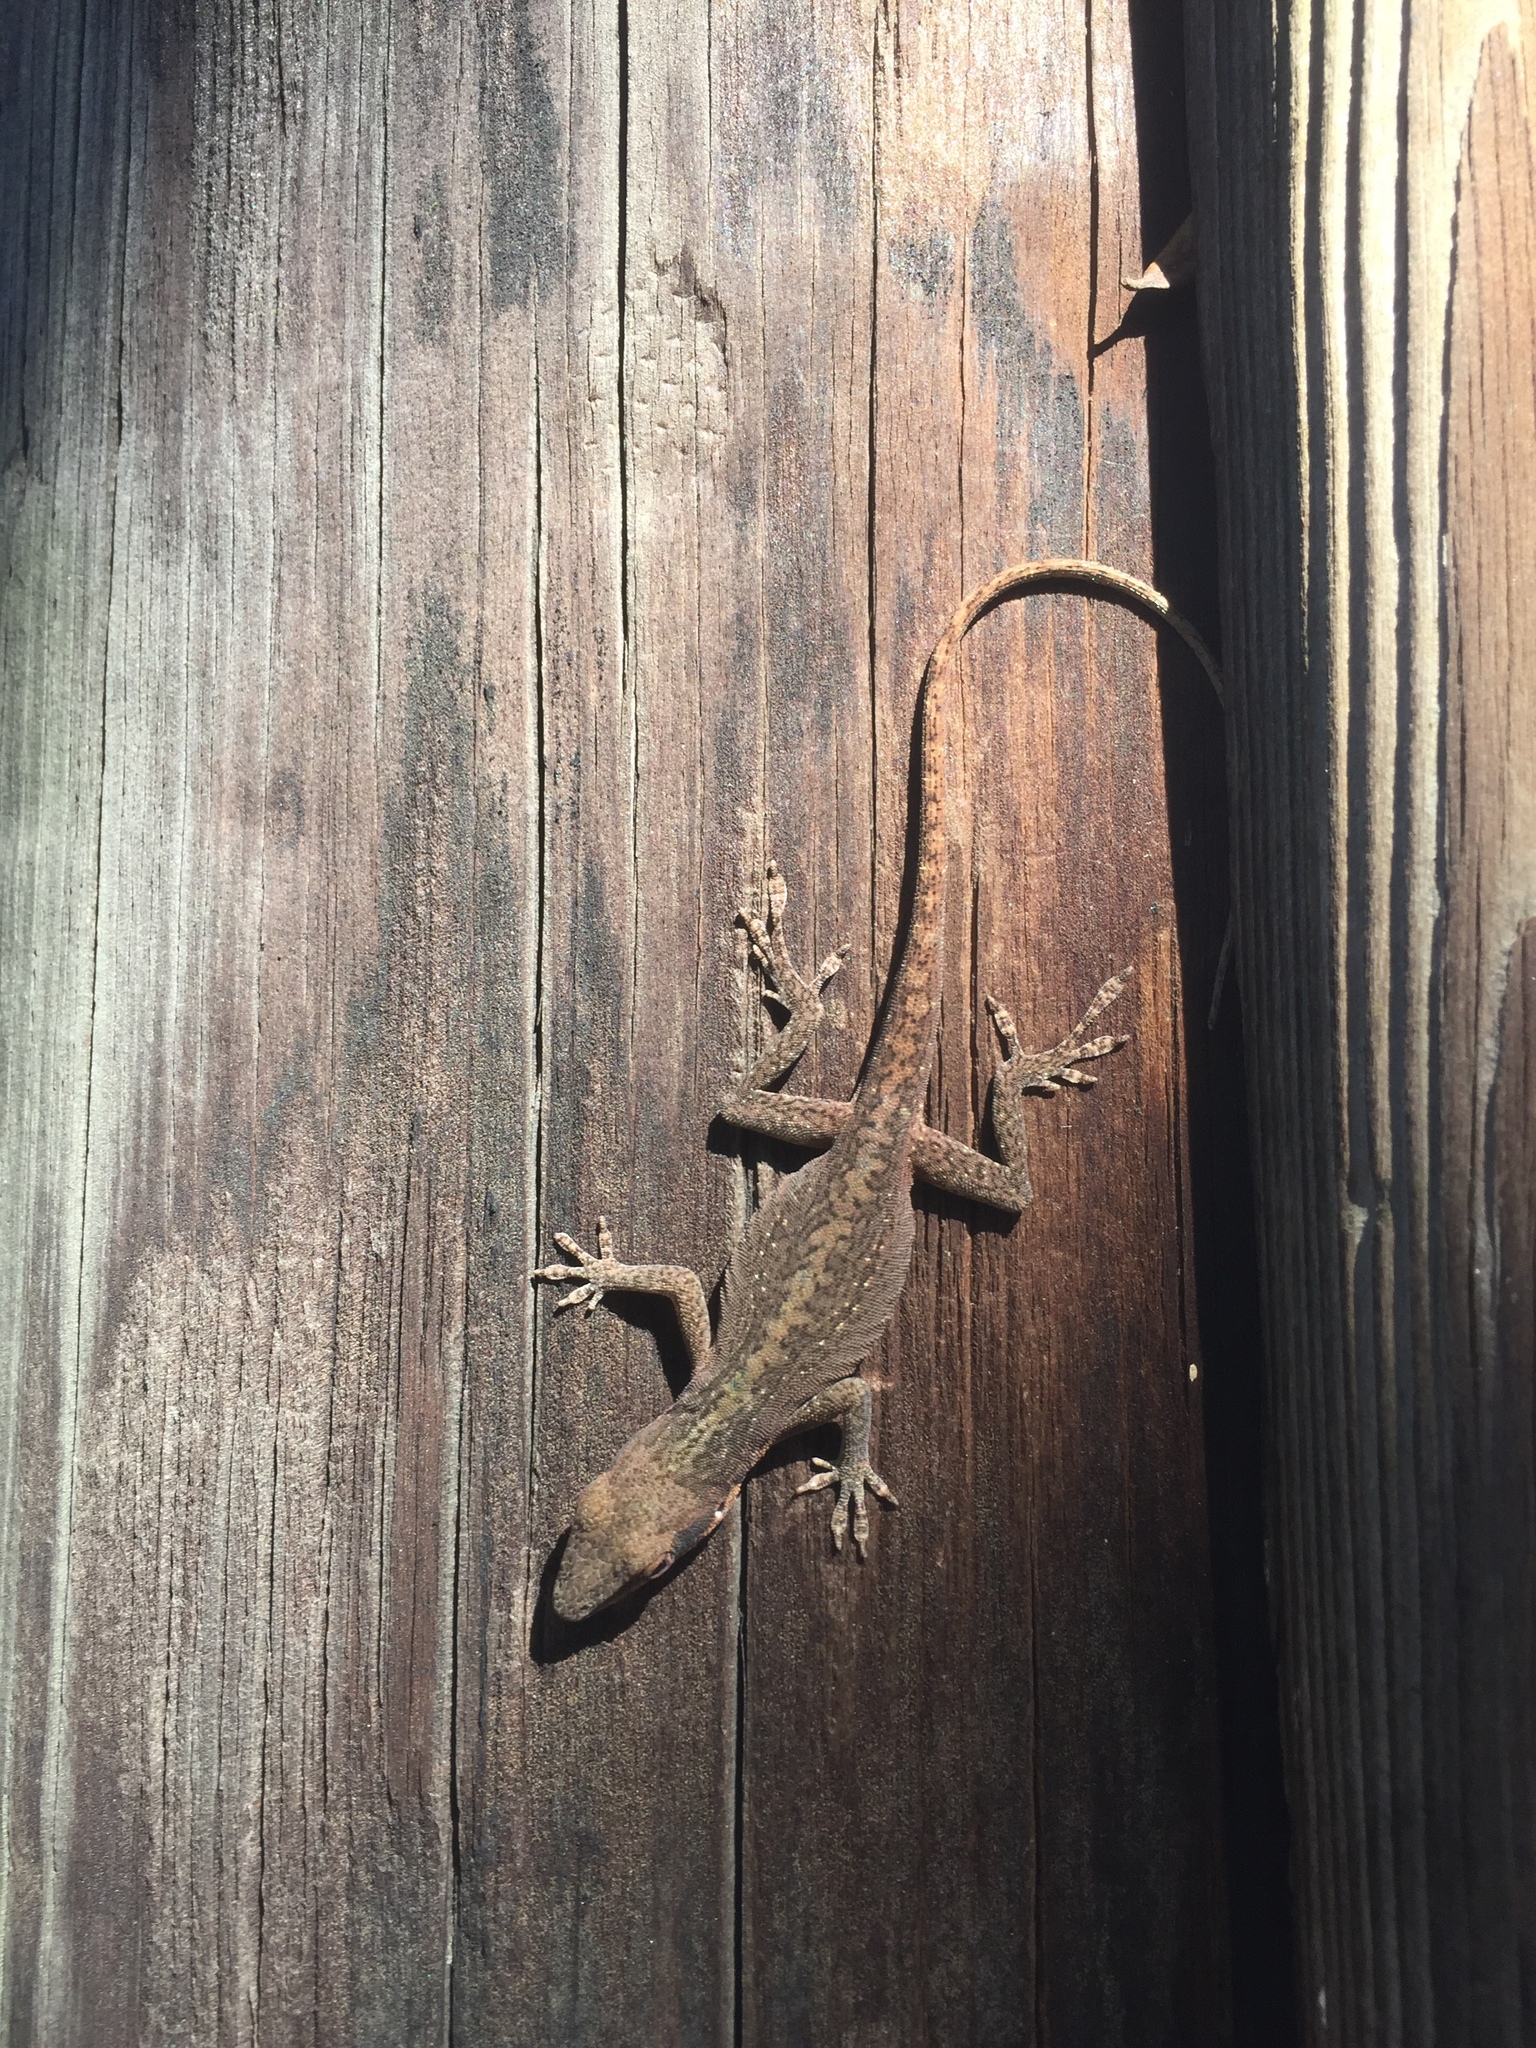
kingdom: Animalia
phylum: Chordata
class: Squamata
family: Dactyloidae
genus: Anolis
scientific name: Anolis carolinensis
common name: Green anole
